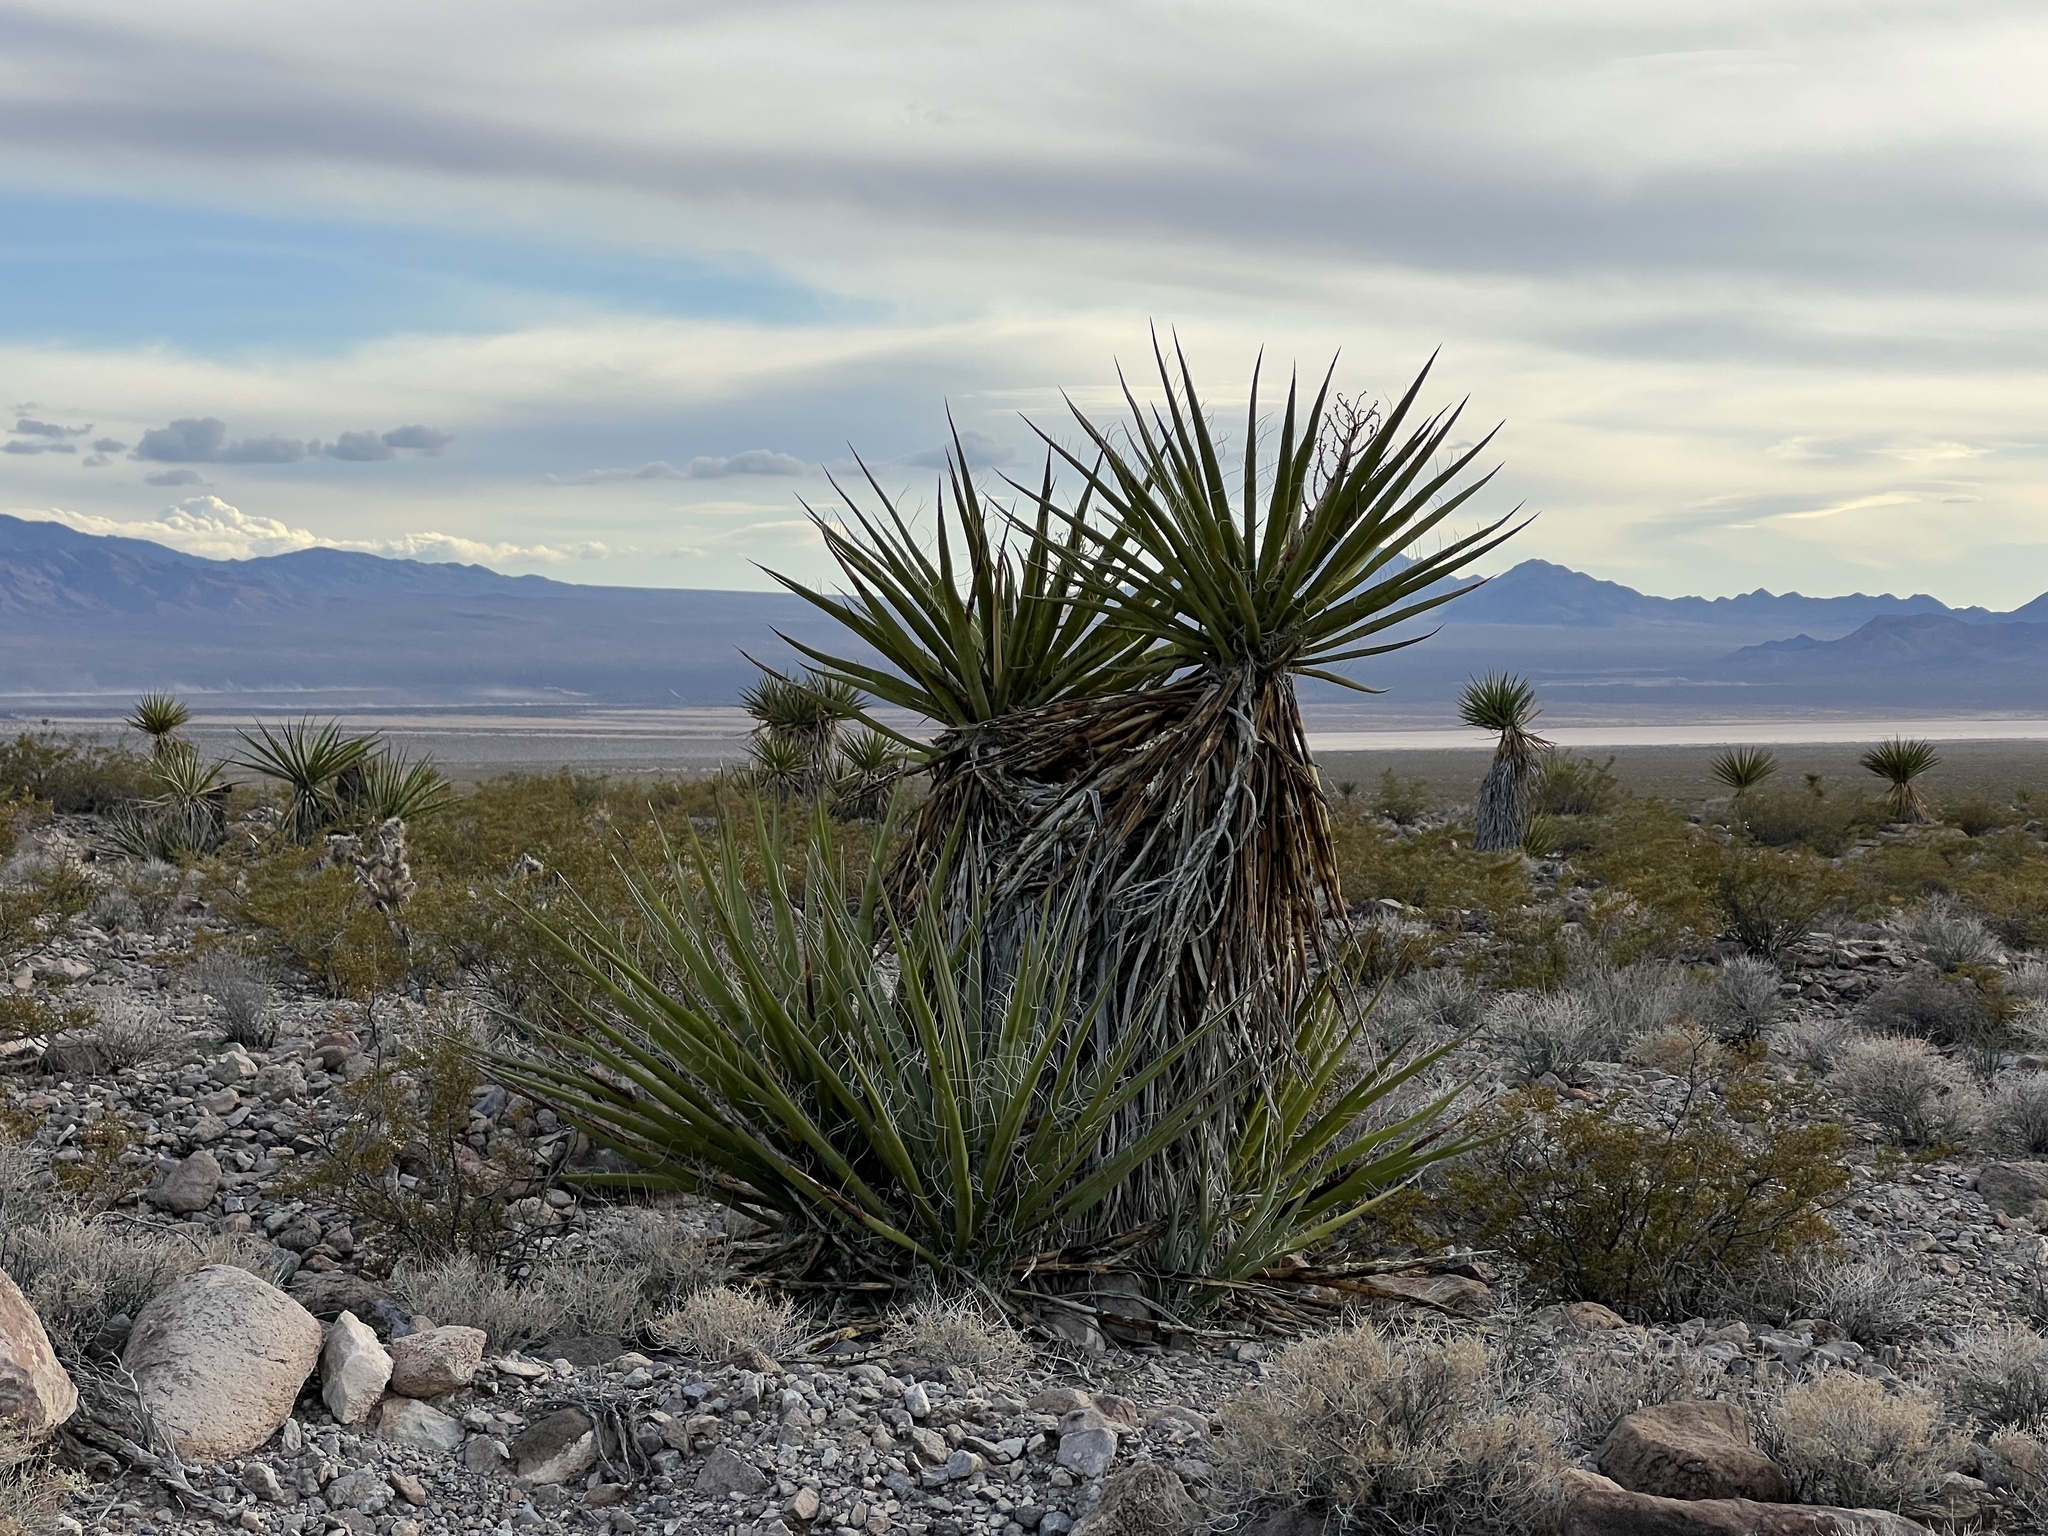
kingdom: Plantae
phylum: Tracheophyta
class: Liliopsida
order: Asparagales
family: Asparagaceae
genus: Yucca
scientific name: Yucca schidigera
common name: Mojave yucca
